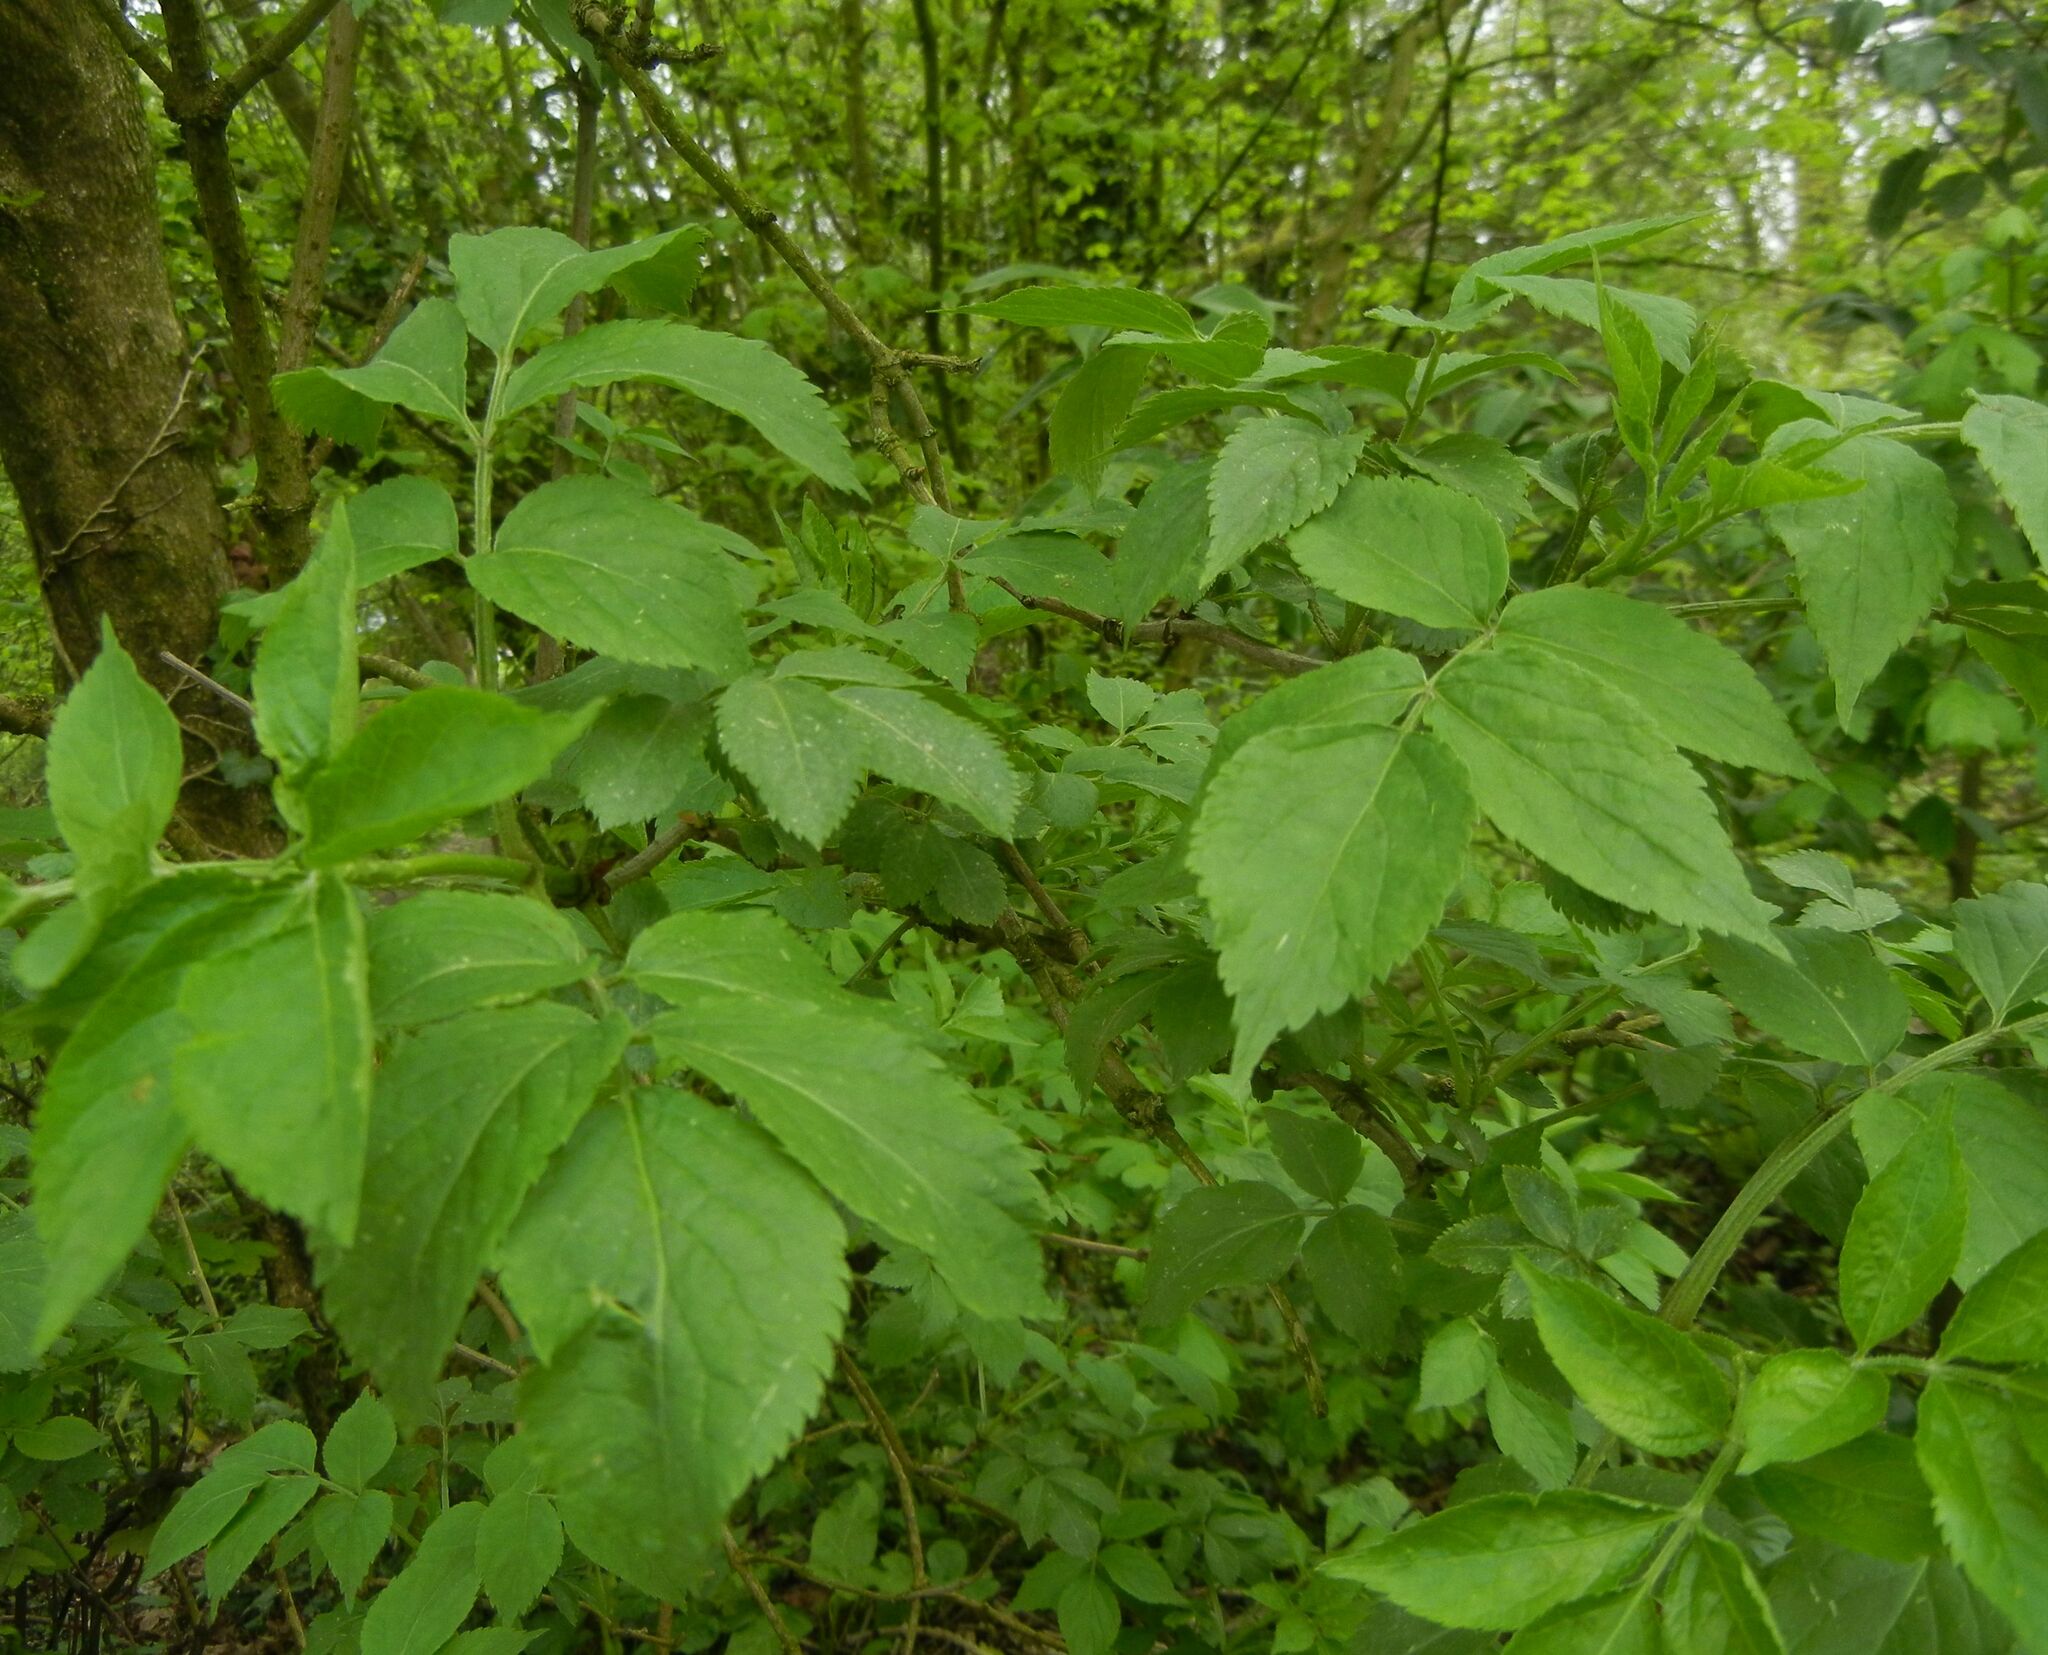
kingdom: Plantae
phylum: Tracheophyta
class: Magnoliopsida
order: Dipsacales
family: Viburnaceae
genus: Sambucus
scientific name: Sambucus nigra
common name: Elder
